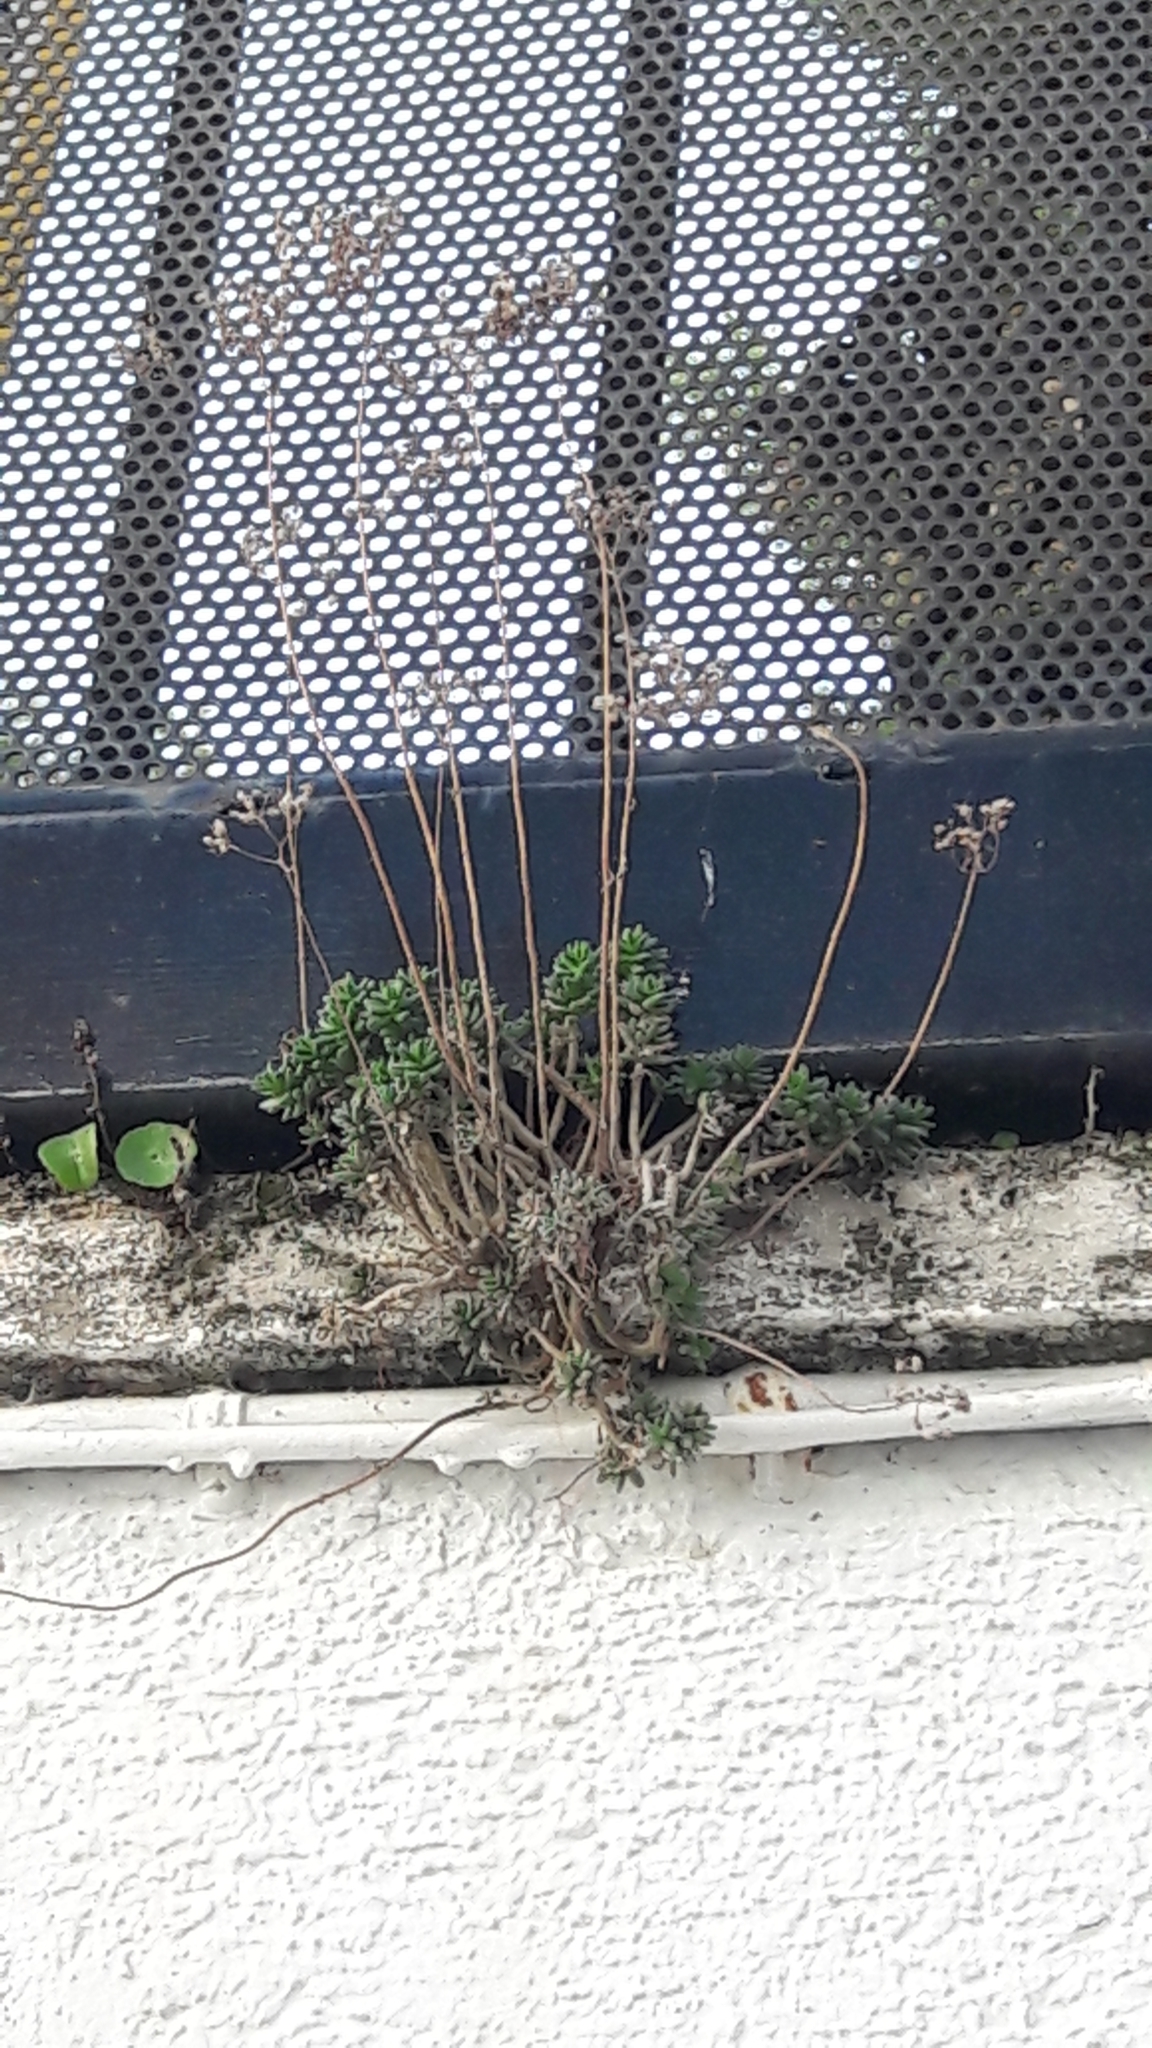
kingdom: Plantae
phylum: Tracheophyta
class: Magnoliopsida
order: Saxifragales
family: Crassulaceae
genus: Sedum
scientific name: Sedum album
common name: White stonecrop
